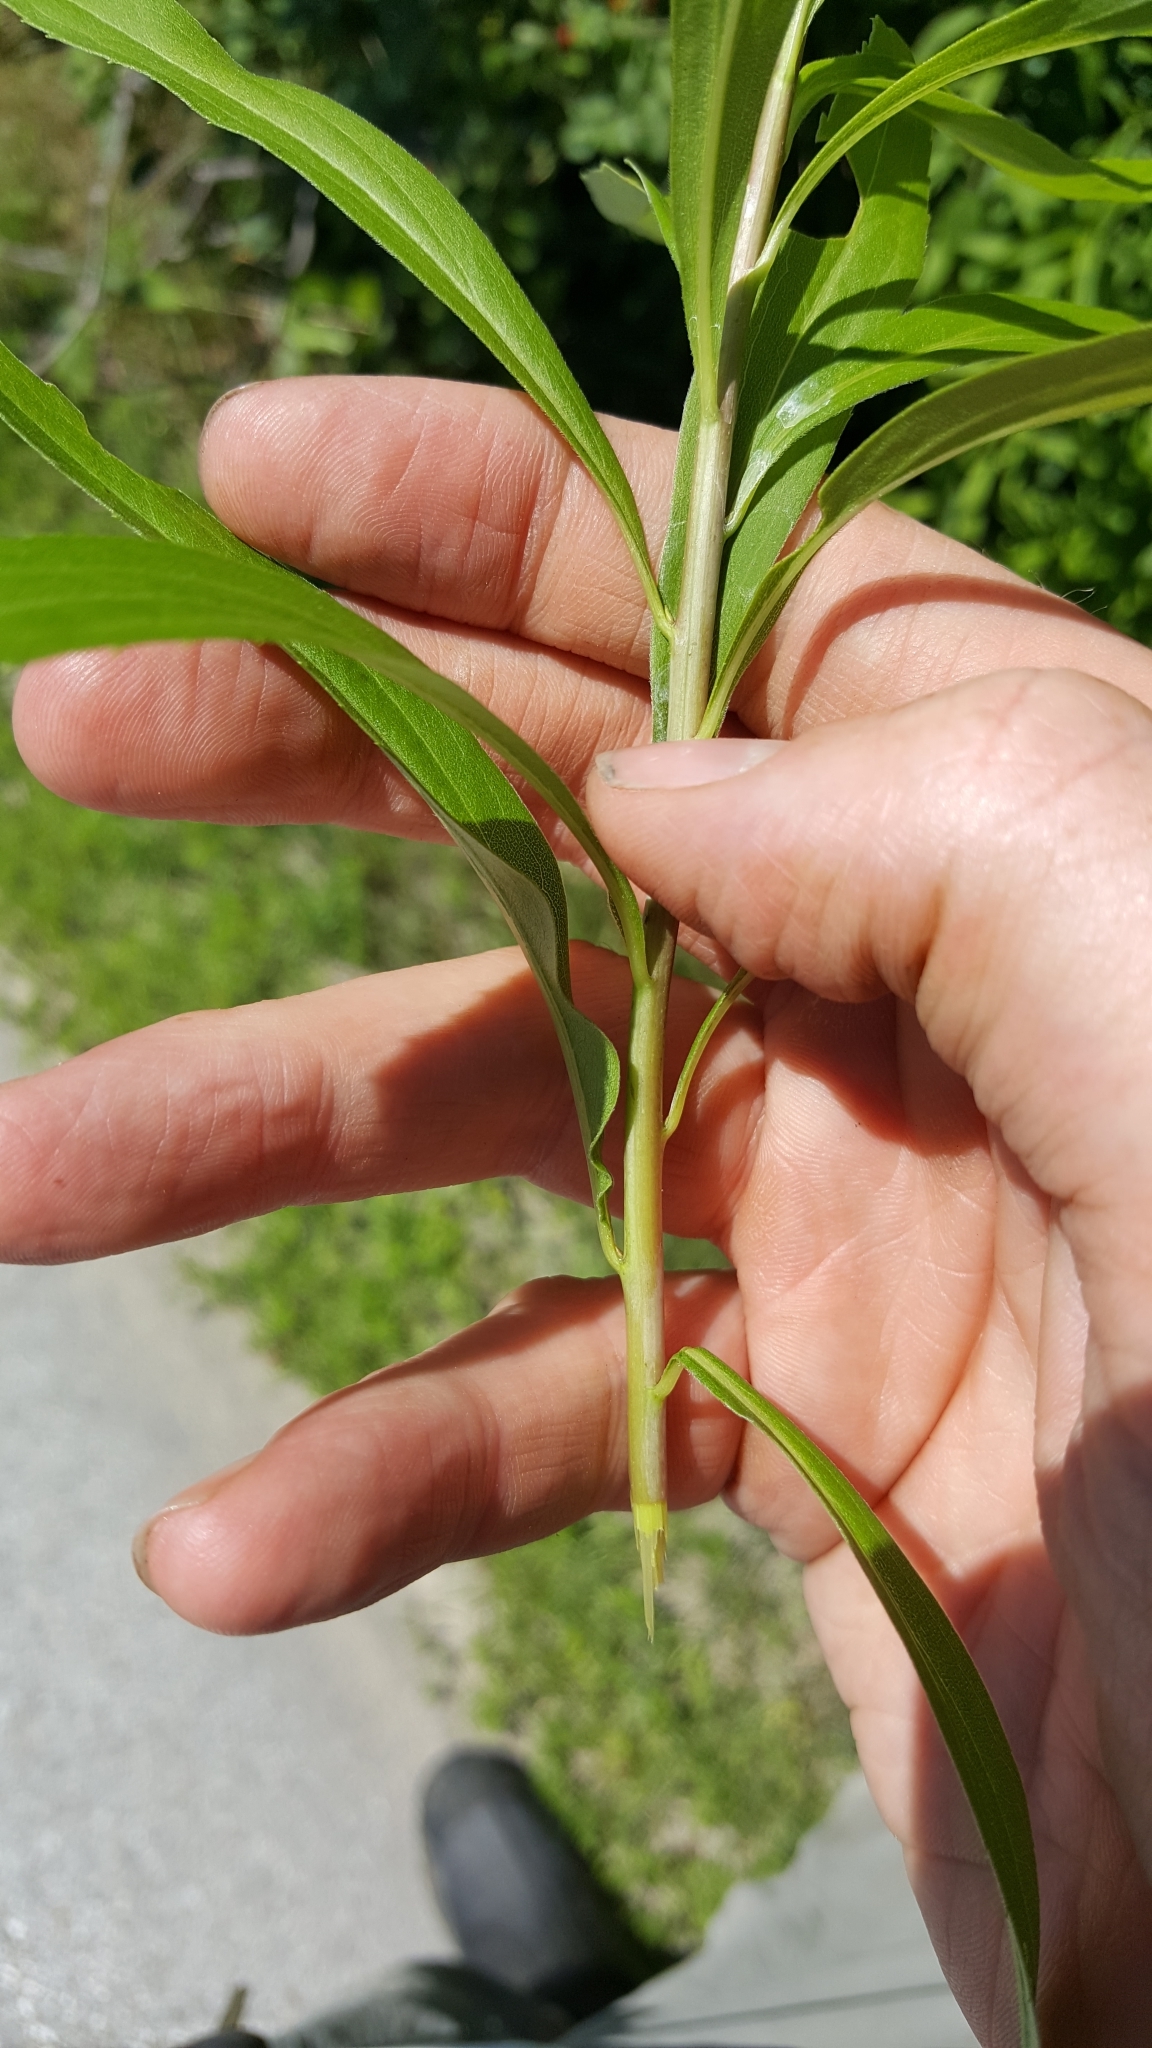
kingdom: Plantae
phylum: Tracheophyta
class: Magnoliopsida
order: Asterales
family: Asteraceae
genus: Solidago
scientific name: Solidago gigantea
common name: Giant goldenrod
